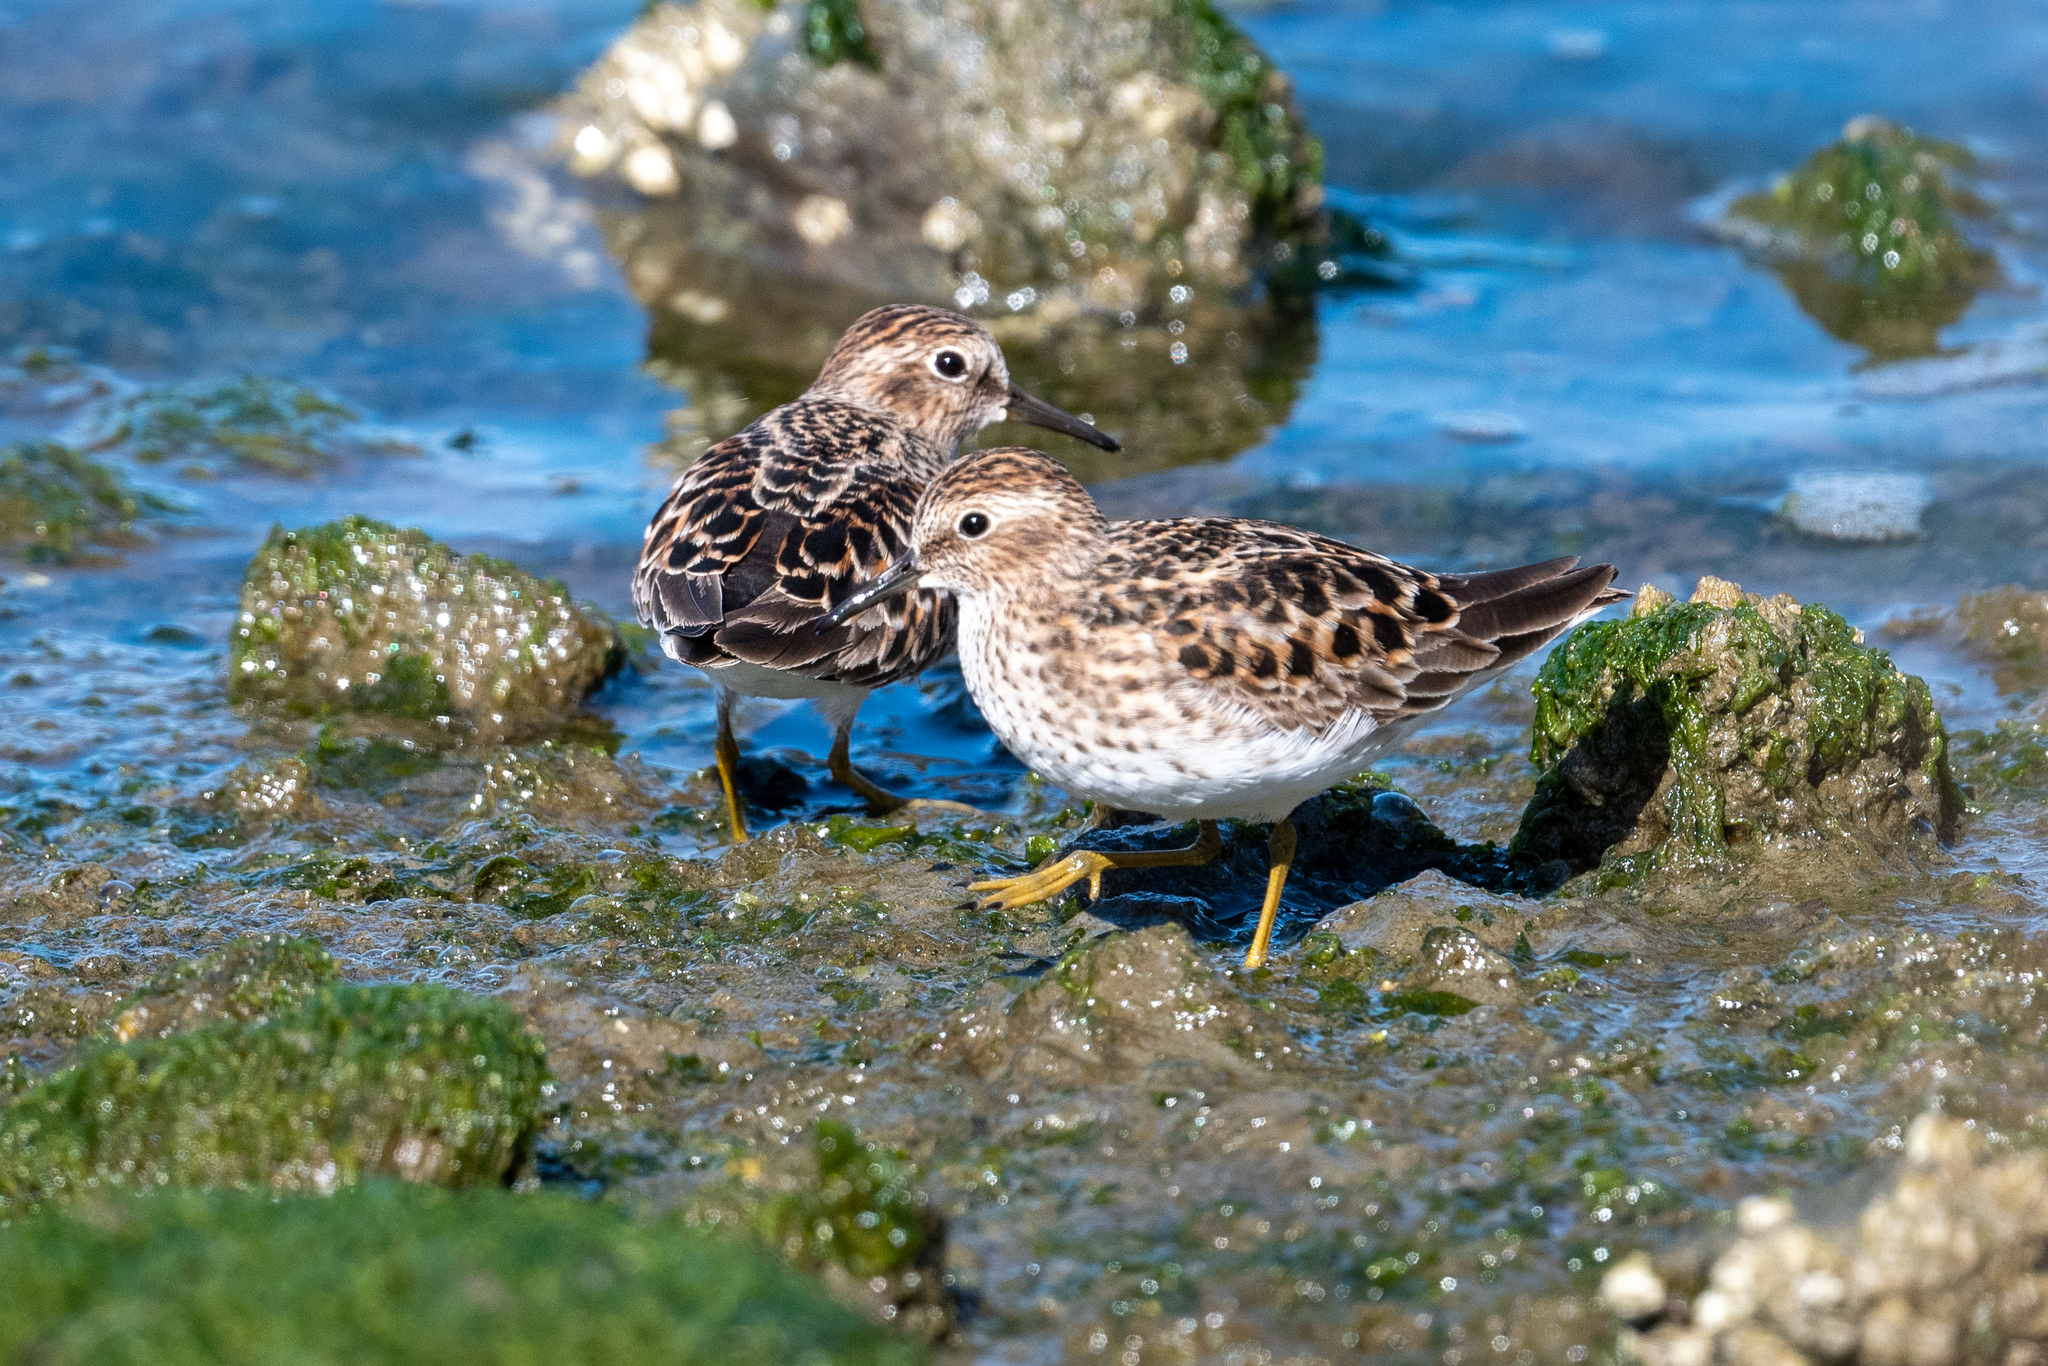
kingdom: Animalia
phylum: Chordata
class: Aves
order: Charadriiformes
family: Scolopacidae
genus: Calidris
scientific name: Calidris minutilla
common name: Least sandpiper
